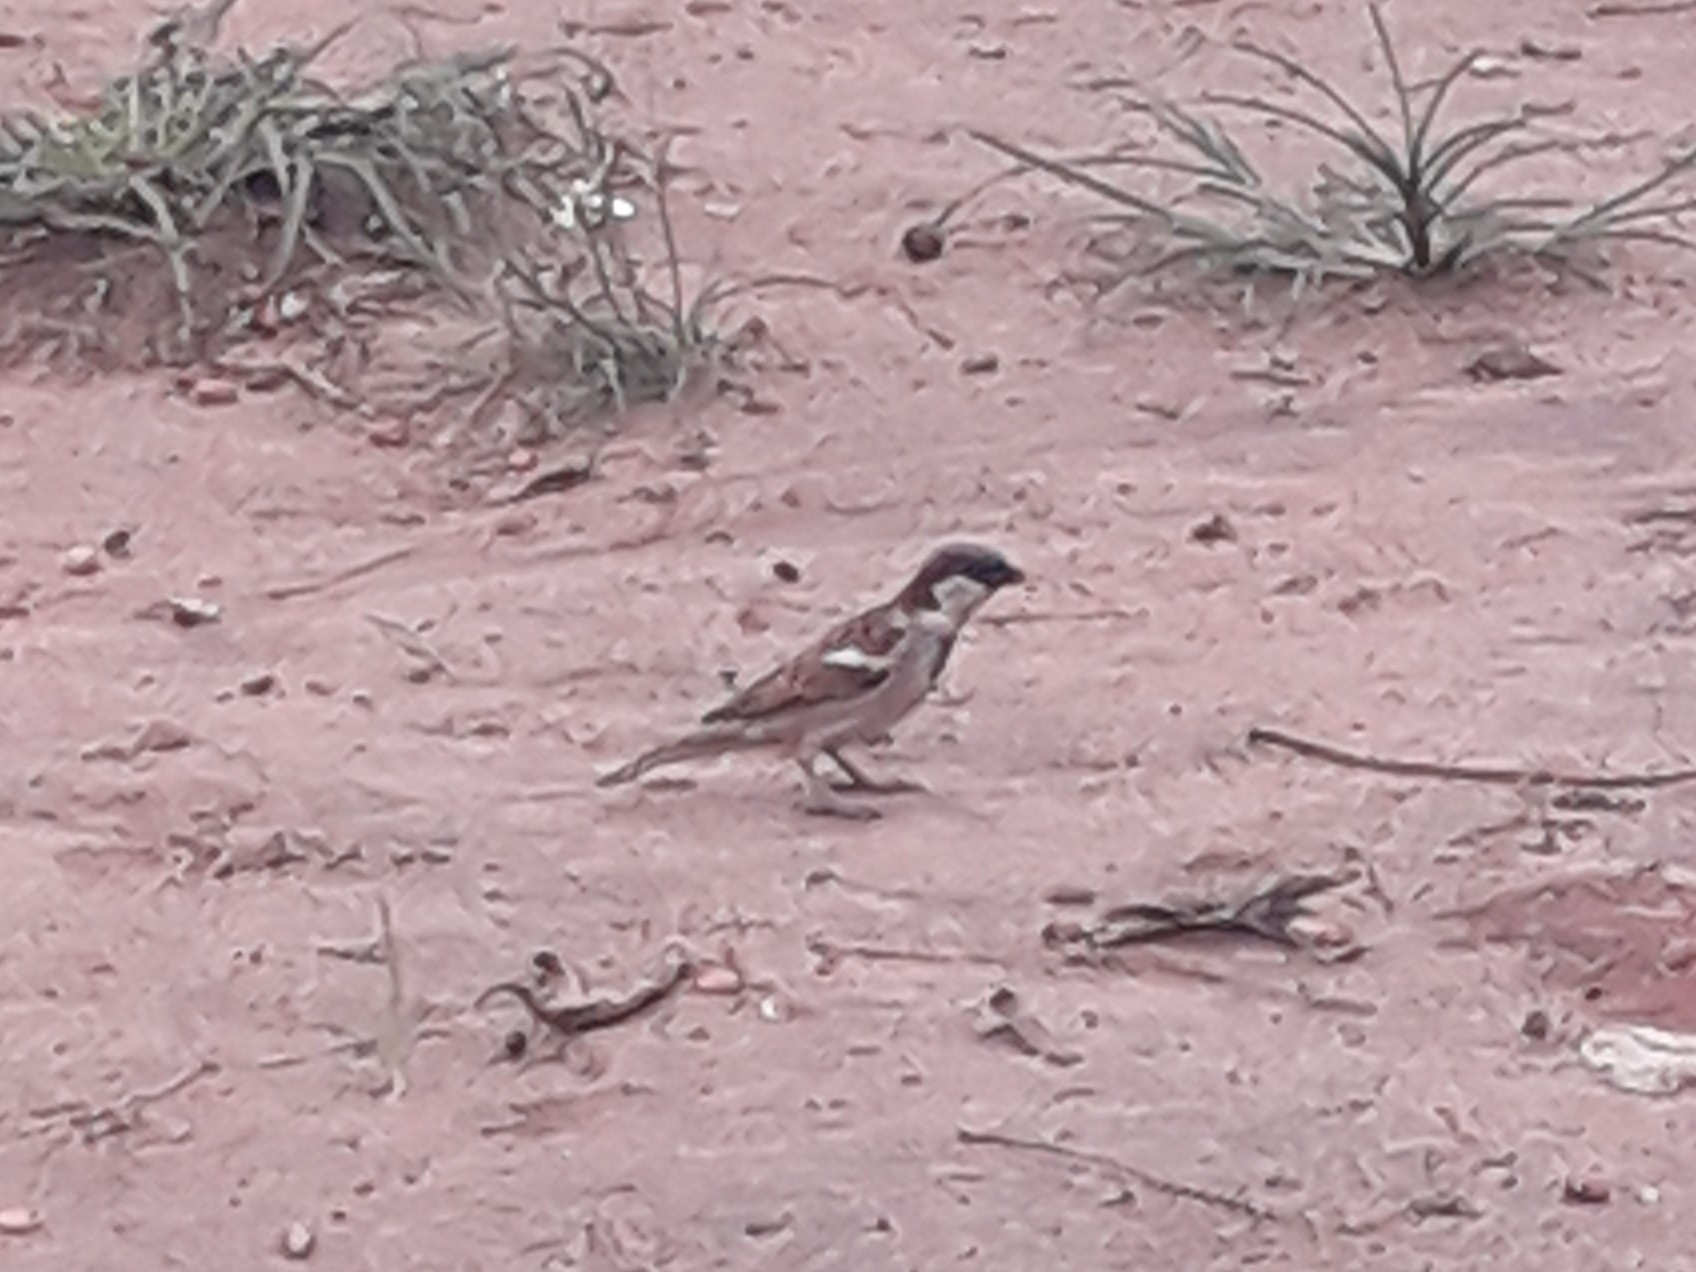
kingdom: Animalia
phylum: Chordata
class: Aves
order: Passeriformes
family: Passeridae
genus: Passer
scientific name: Passer domesticus
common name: House sparrow
